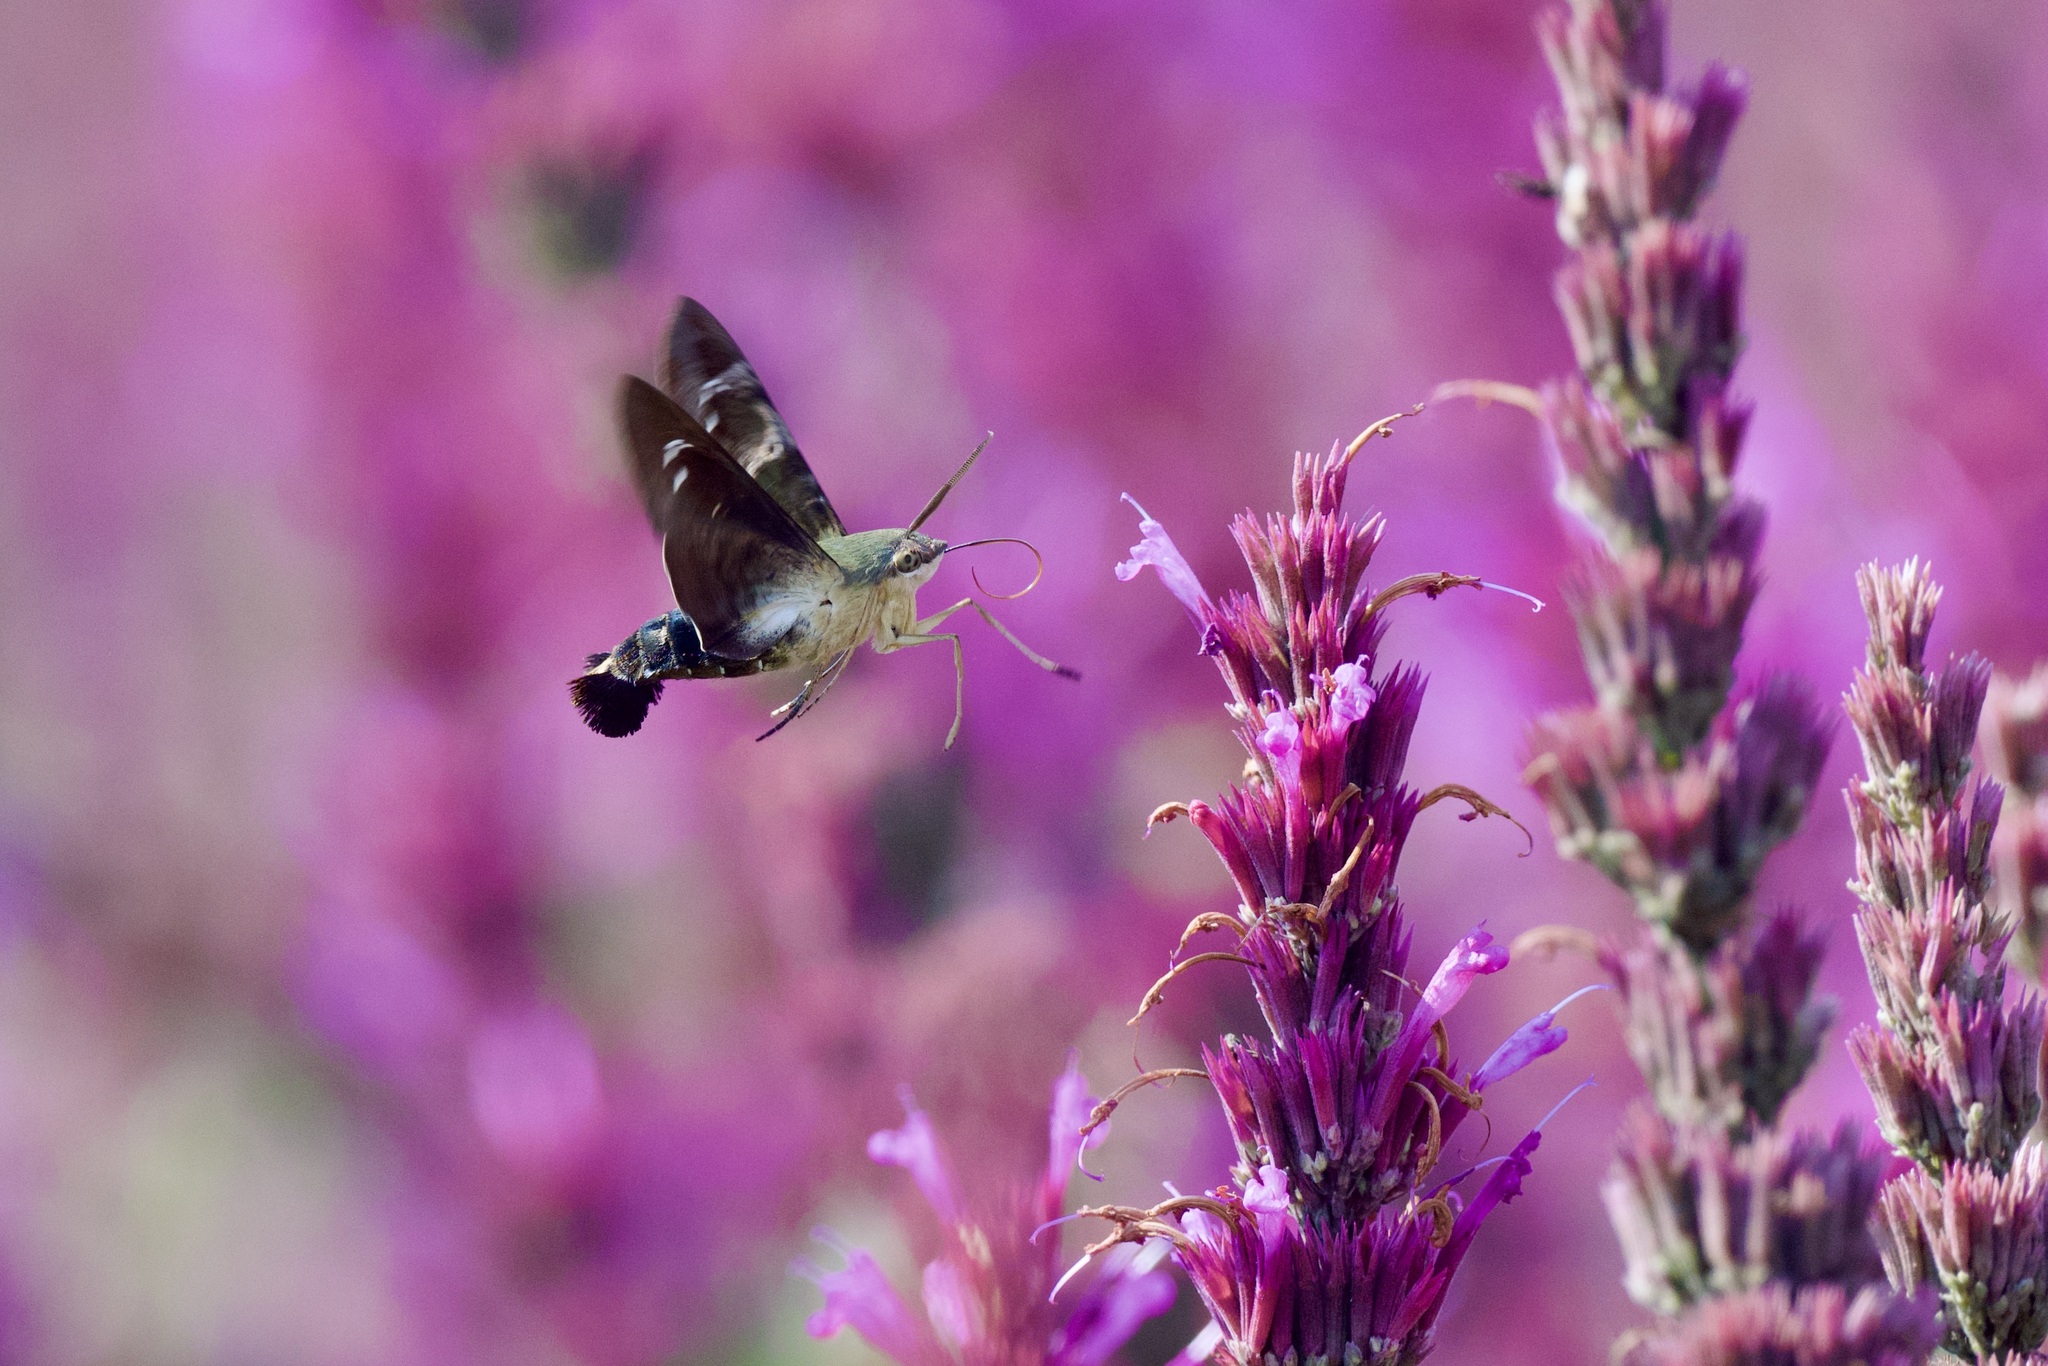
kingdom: Animalia
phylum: Arthropoda
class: Insecta
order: Lepidoptera
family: Sphingidae
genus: Aellopos
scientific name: Aellopos clavipes
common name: Clavipes sphinx
